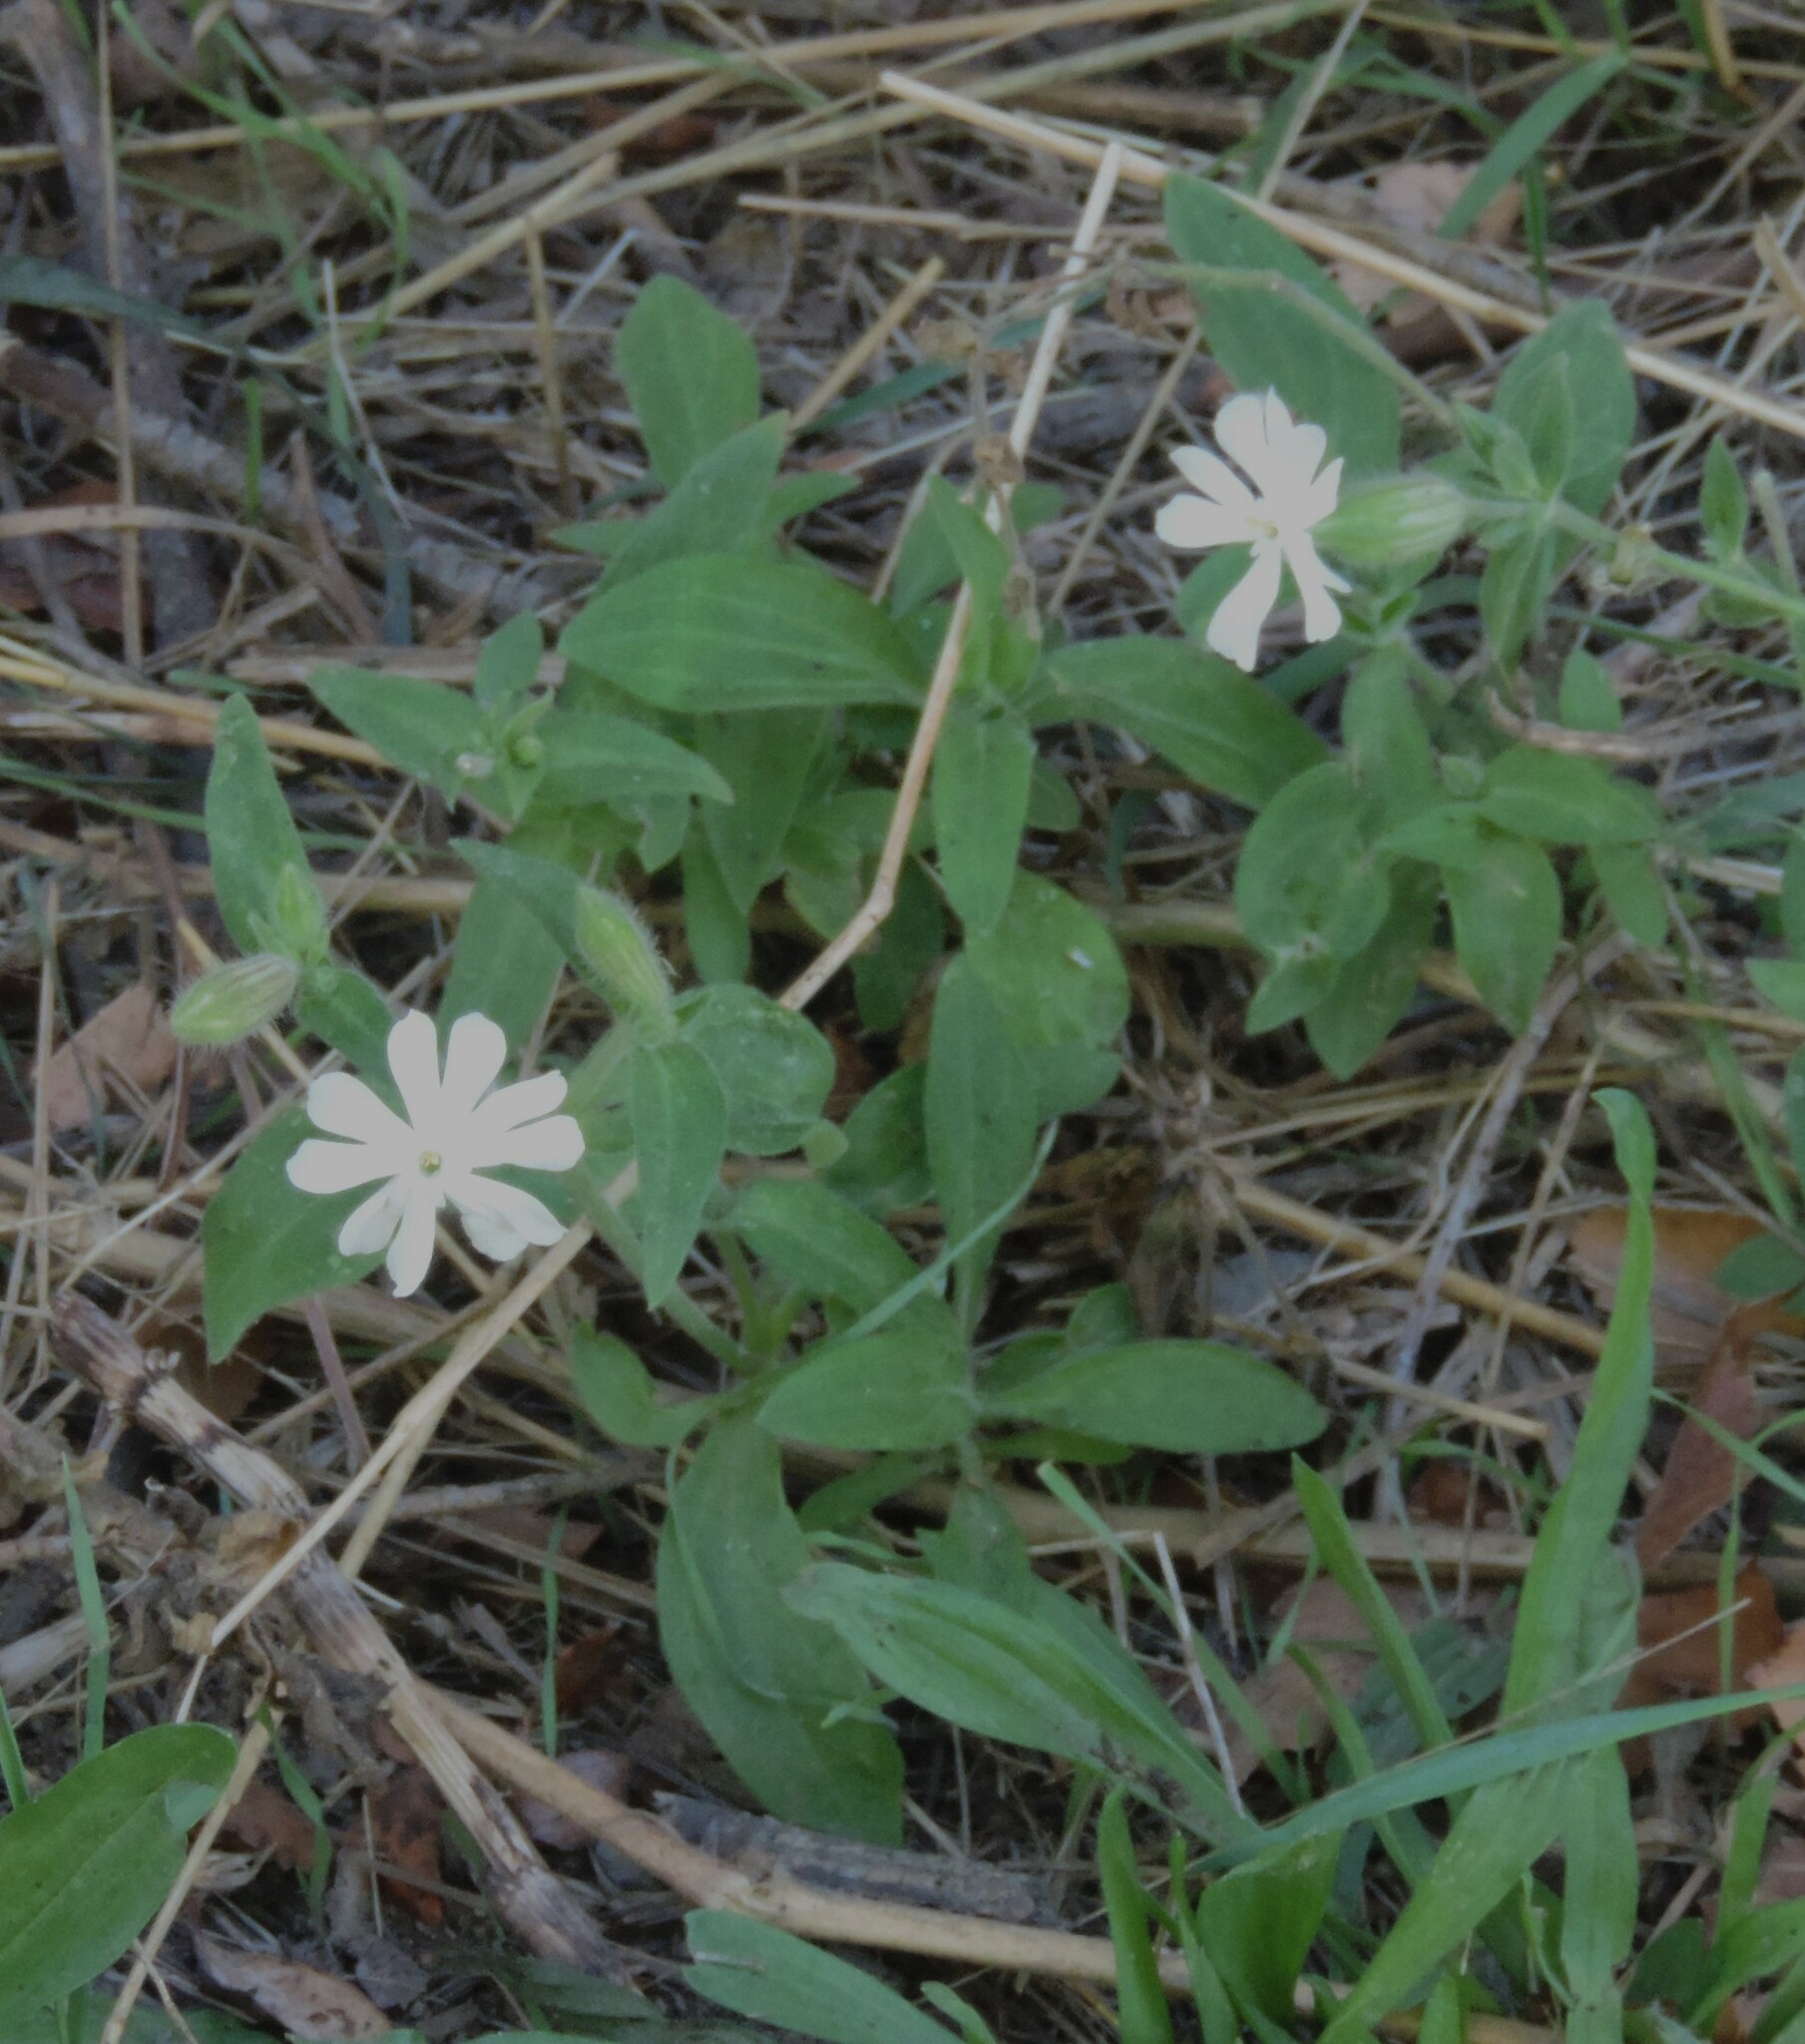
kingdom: Plantae
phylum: Tracheophyta
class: Magnoliopsida
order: Caryophyllales
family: Caryophyllaceae
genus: Silene
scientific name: Silene latifolia
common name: White campion
